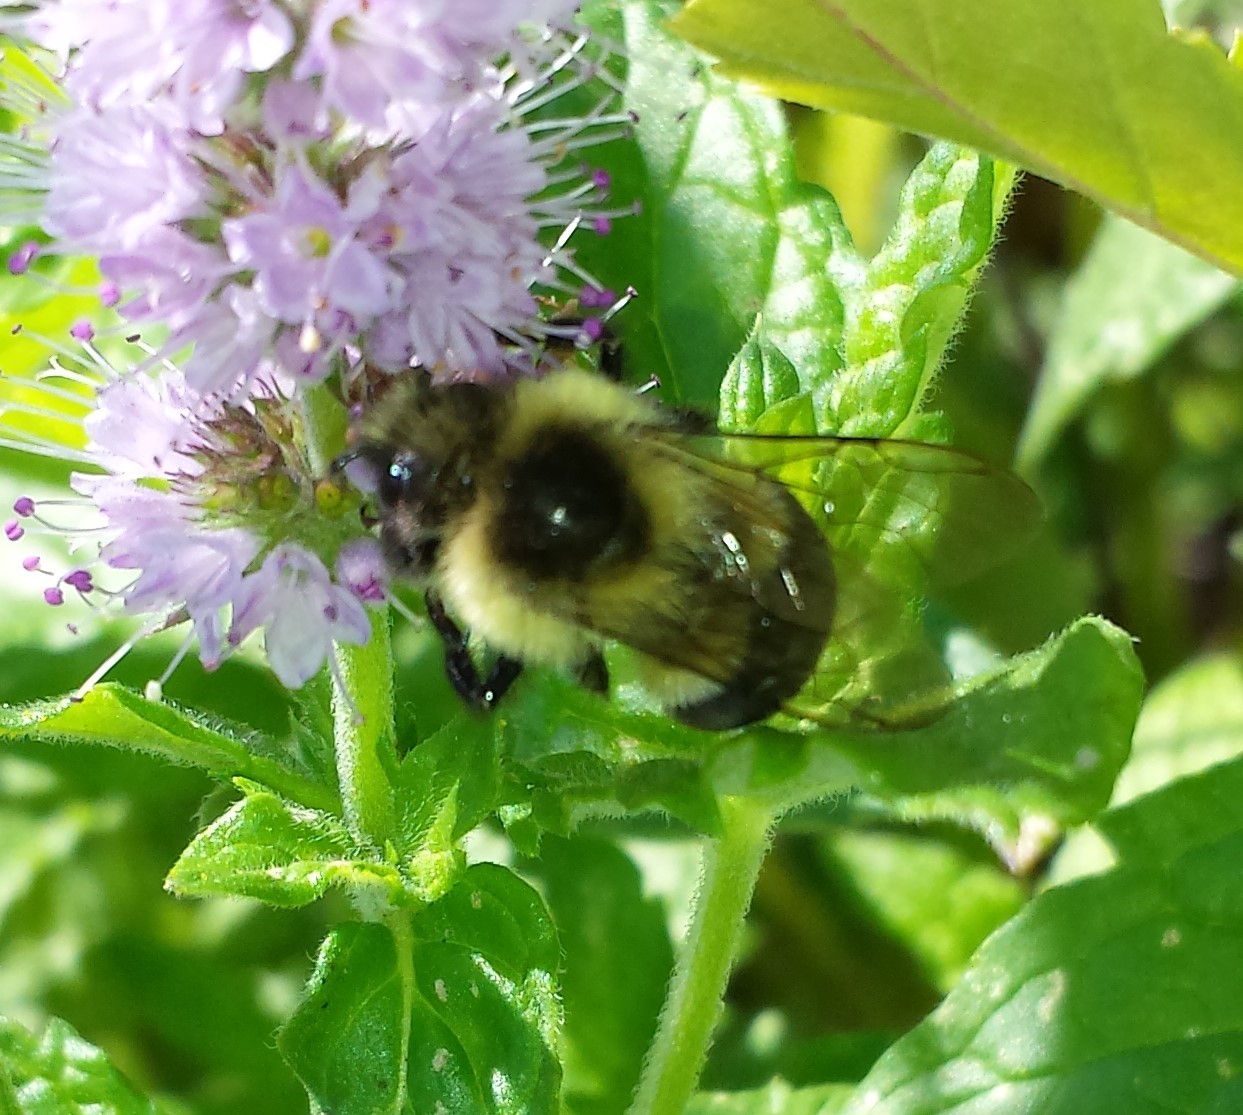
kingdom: Animalia
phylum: Arthropoda
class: Insecta
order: Hymenoptera
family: Apidae
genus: Bombus
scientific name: Bombus impatiens
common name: Common eastern bumble bee
